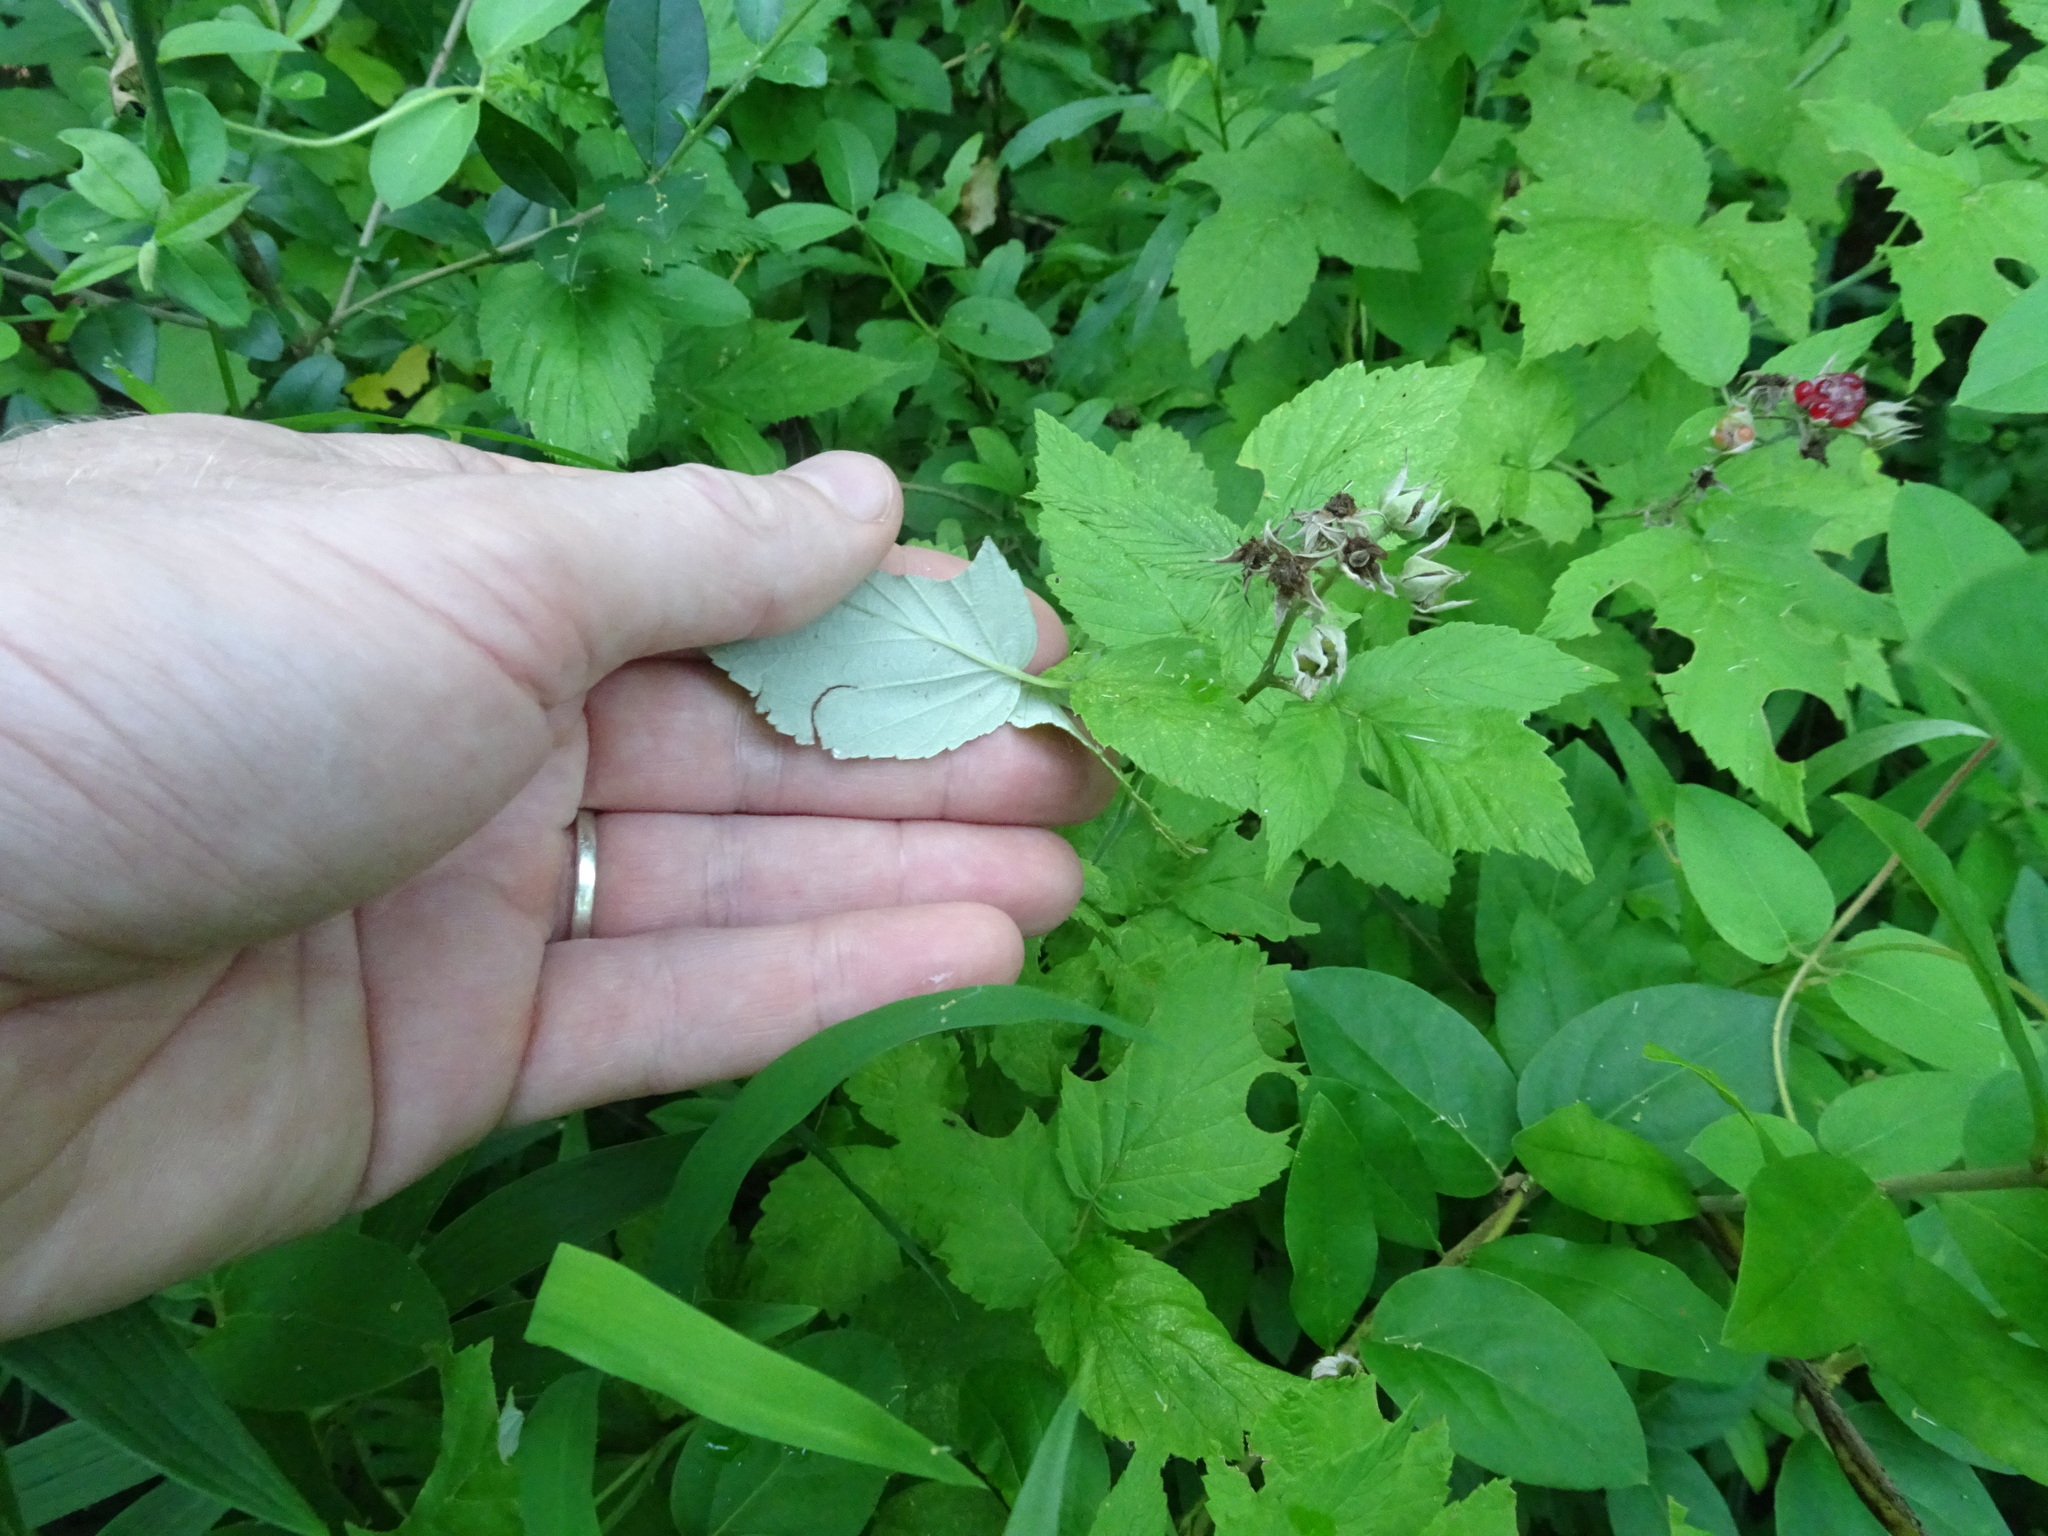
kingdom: Plantae
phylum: Tracheophyta
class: Magnoliopsida
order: Rosales
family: Rosaceae
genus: Rubus
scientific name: Rubus occidentalis
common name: Black raspberry
